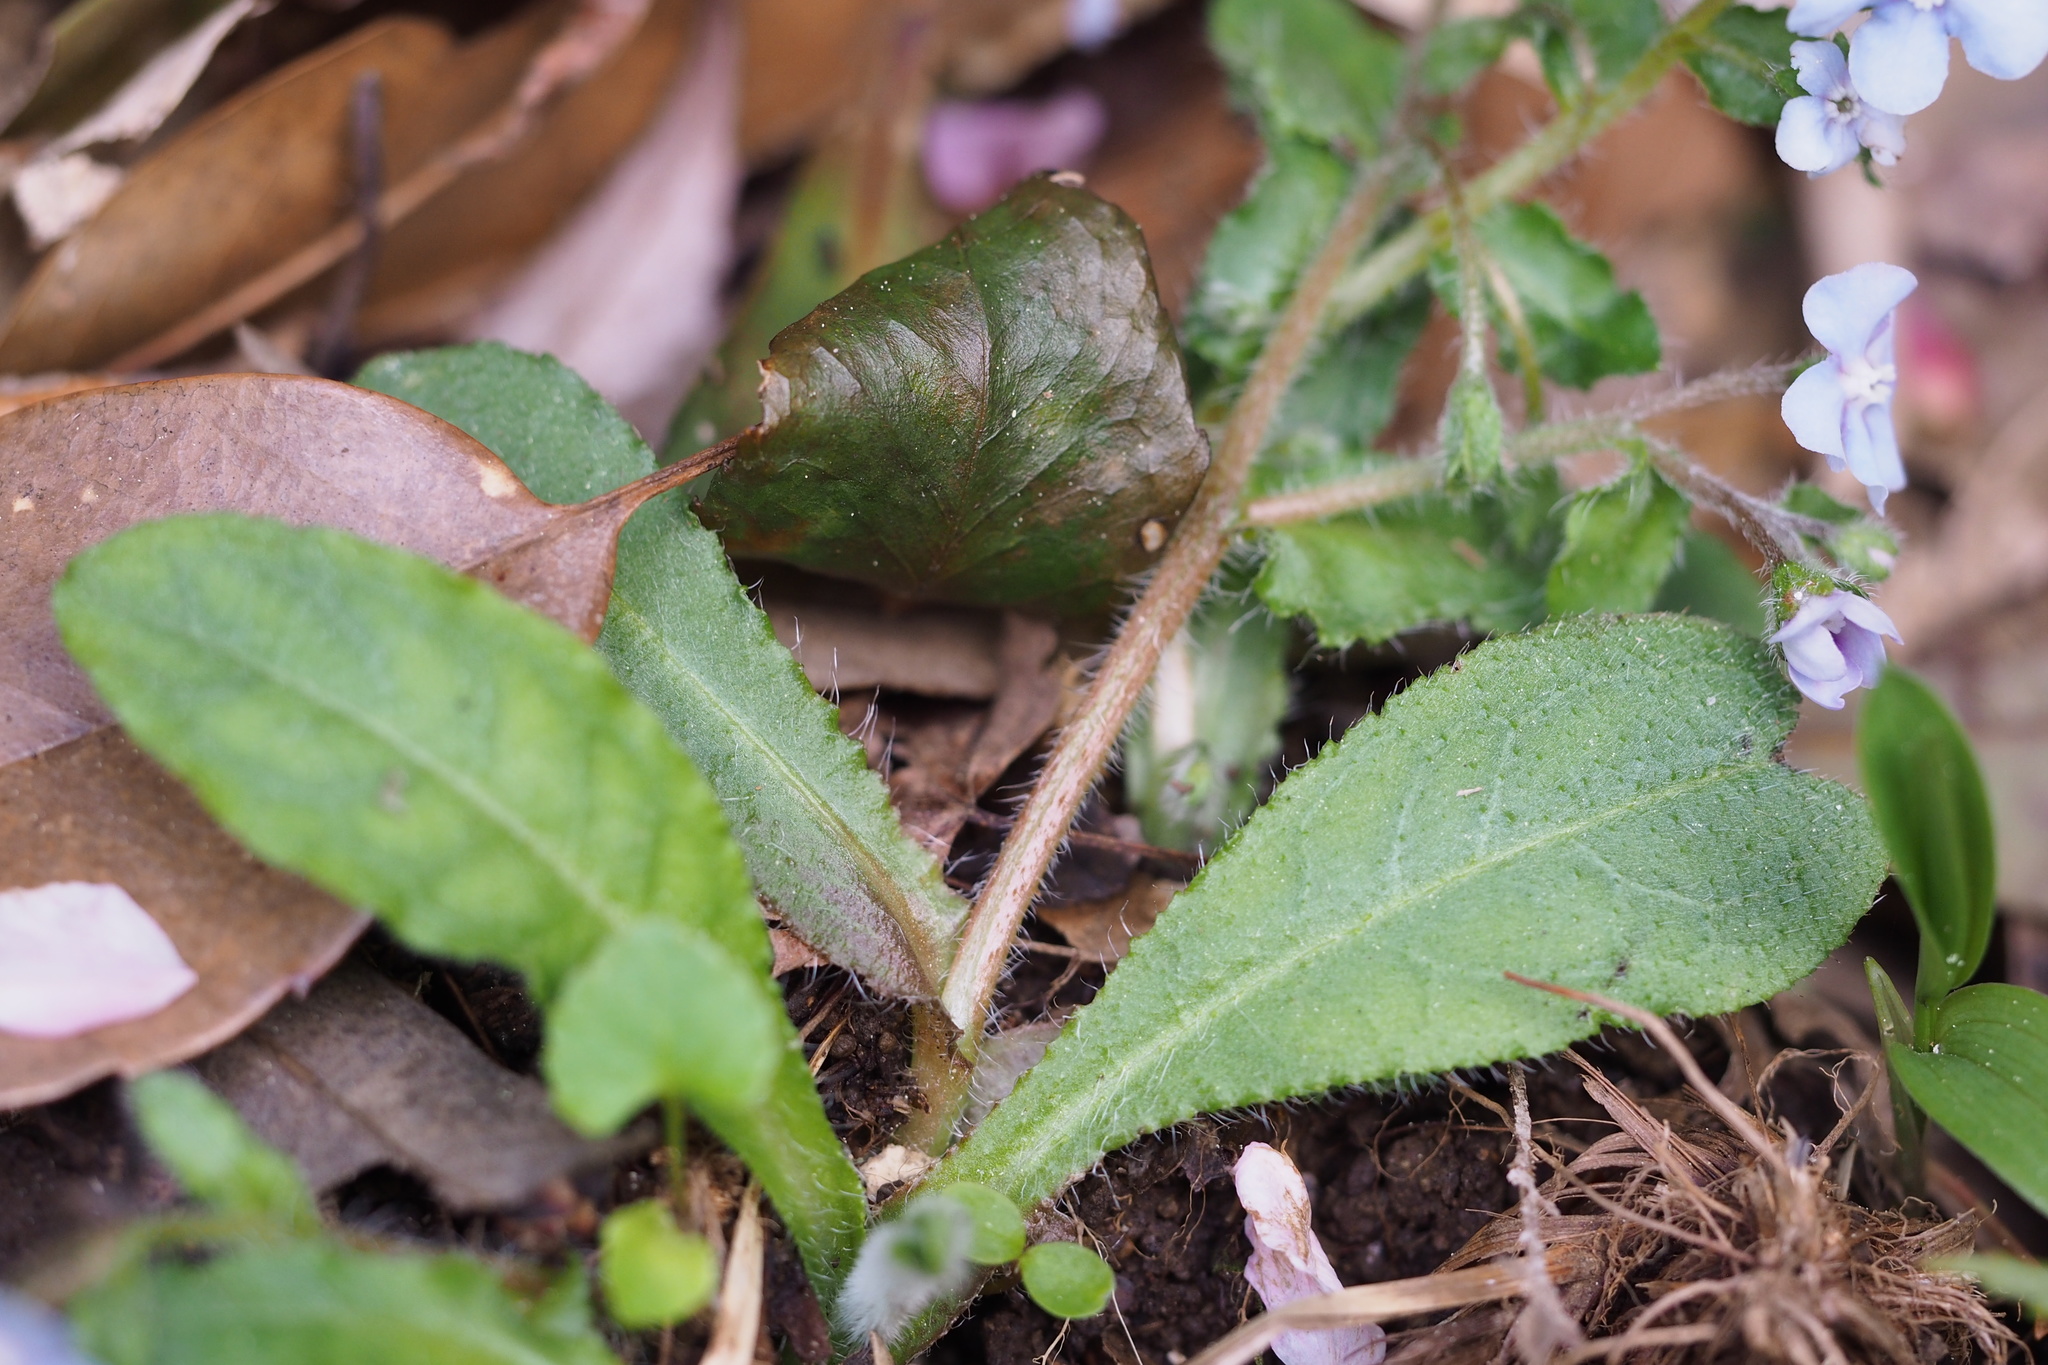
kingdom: Plantae
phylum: Tracheophyta
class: Magnoliopsida
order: Boraginales
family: Boraginaceae
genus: Nihon
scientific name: Nihon japonicum
